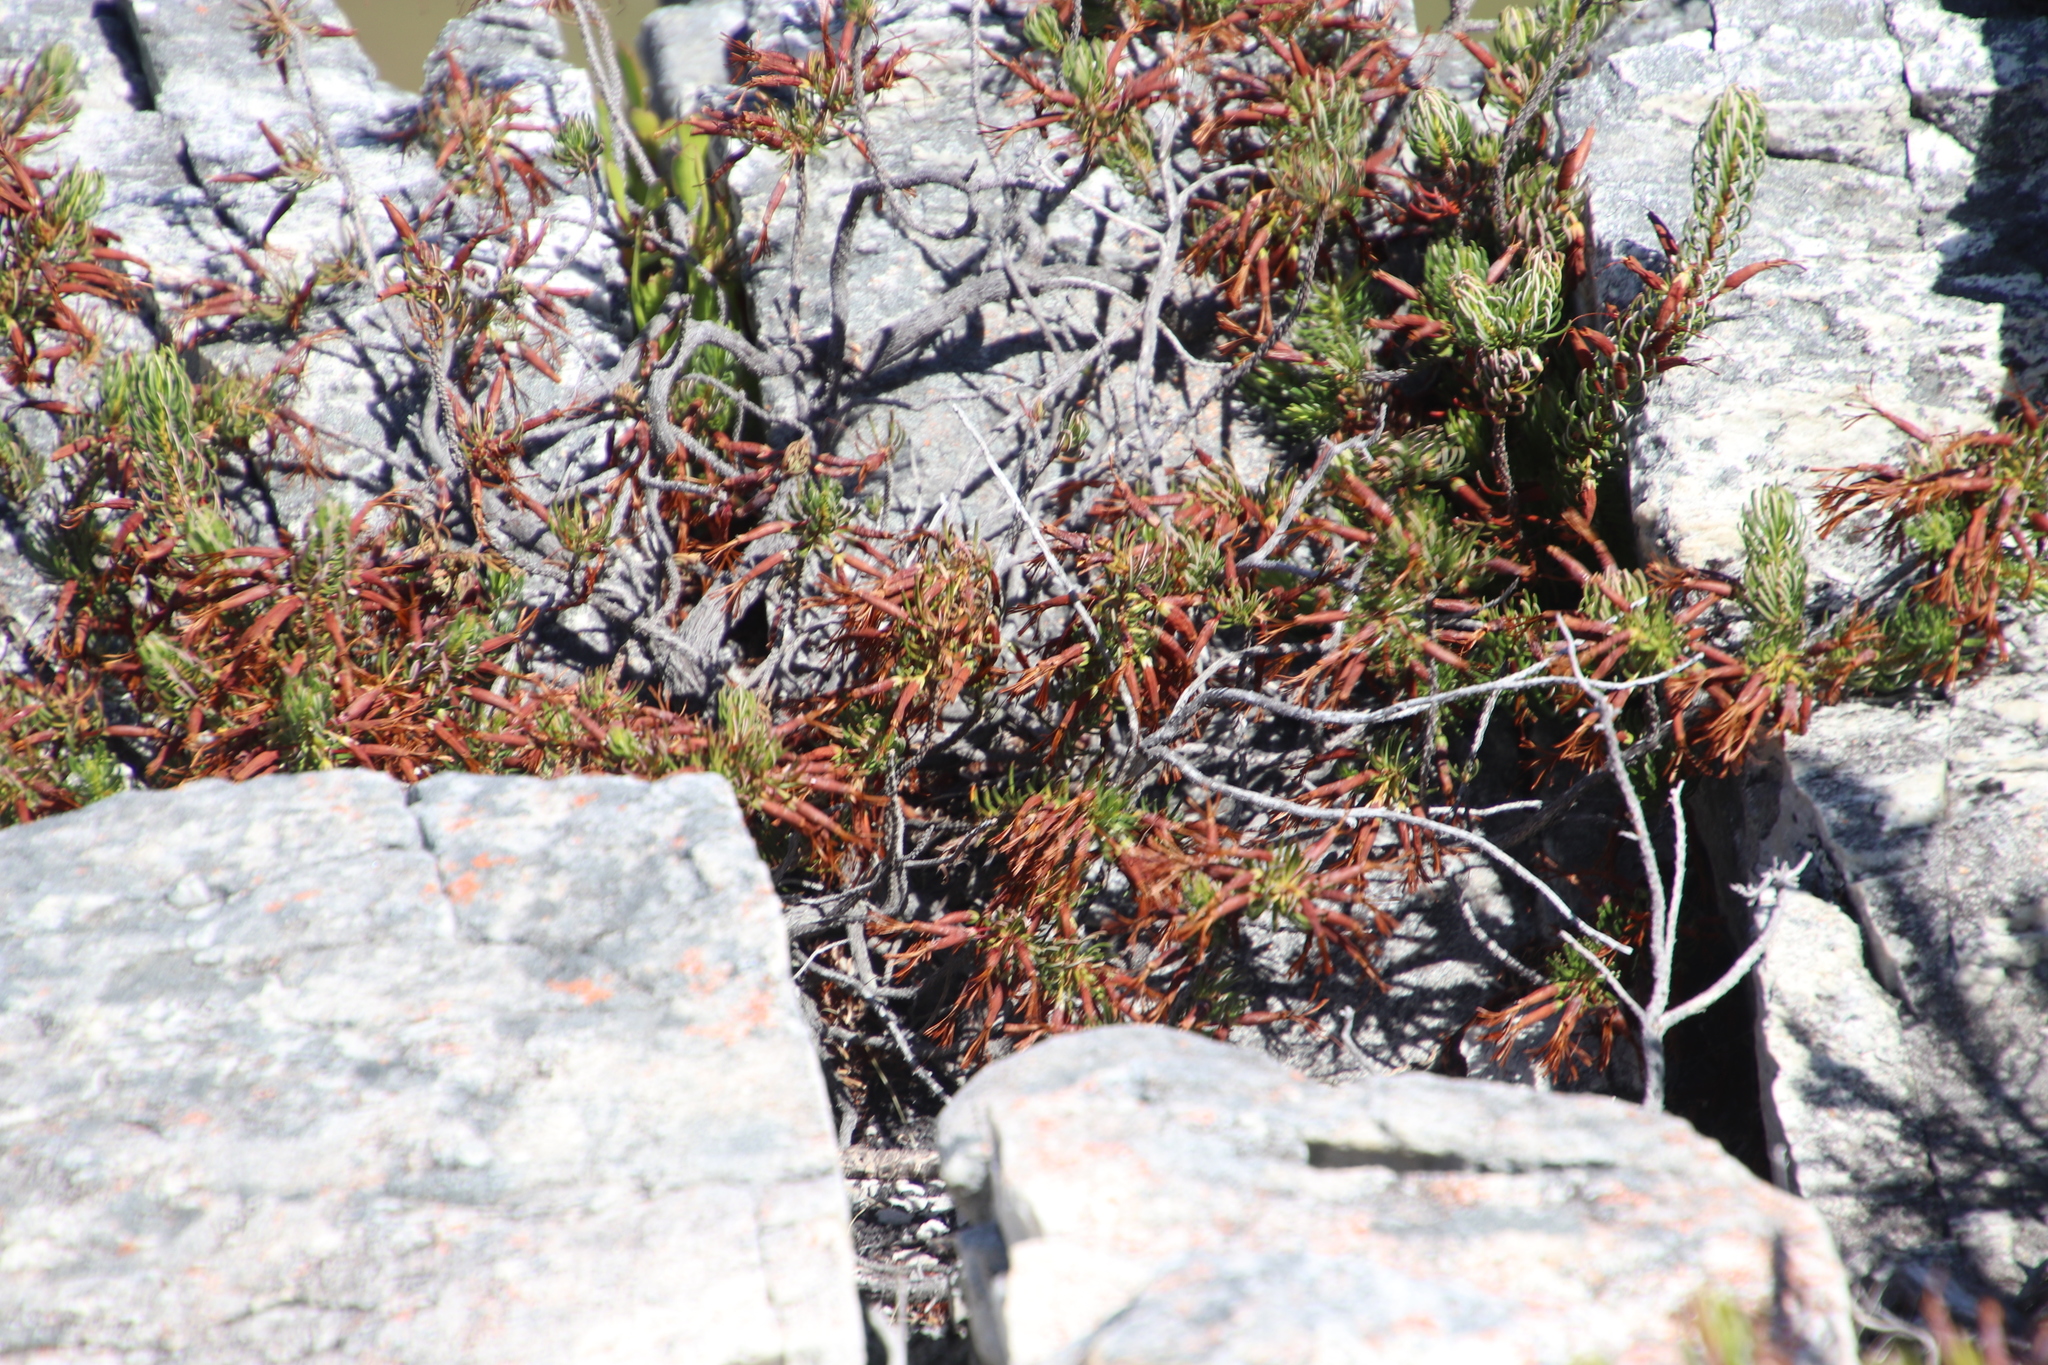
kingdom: Plantae
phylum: Tracheophyta
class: Magnoliopsida
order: Ericales
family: Ericaceae
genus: Erica
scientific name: Erica plukenetii
